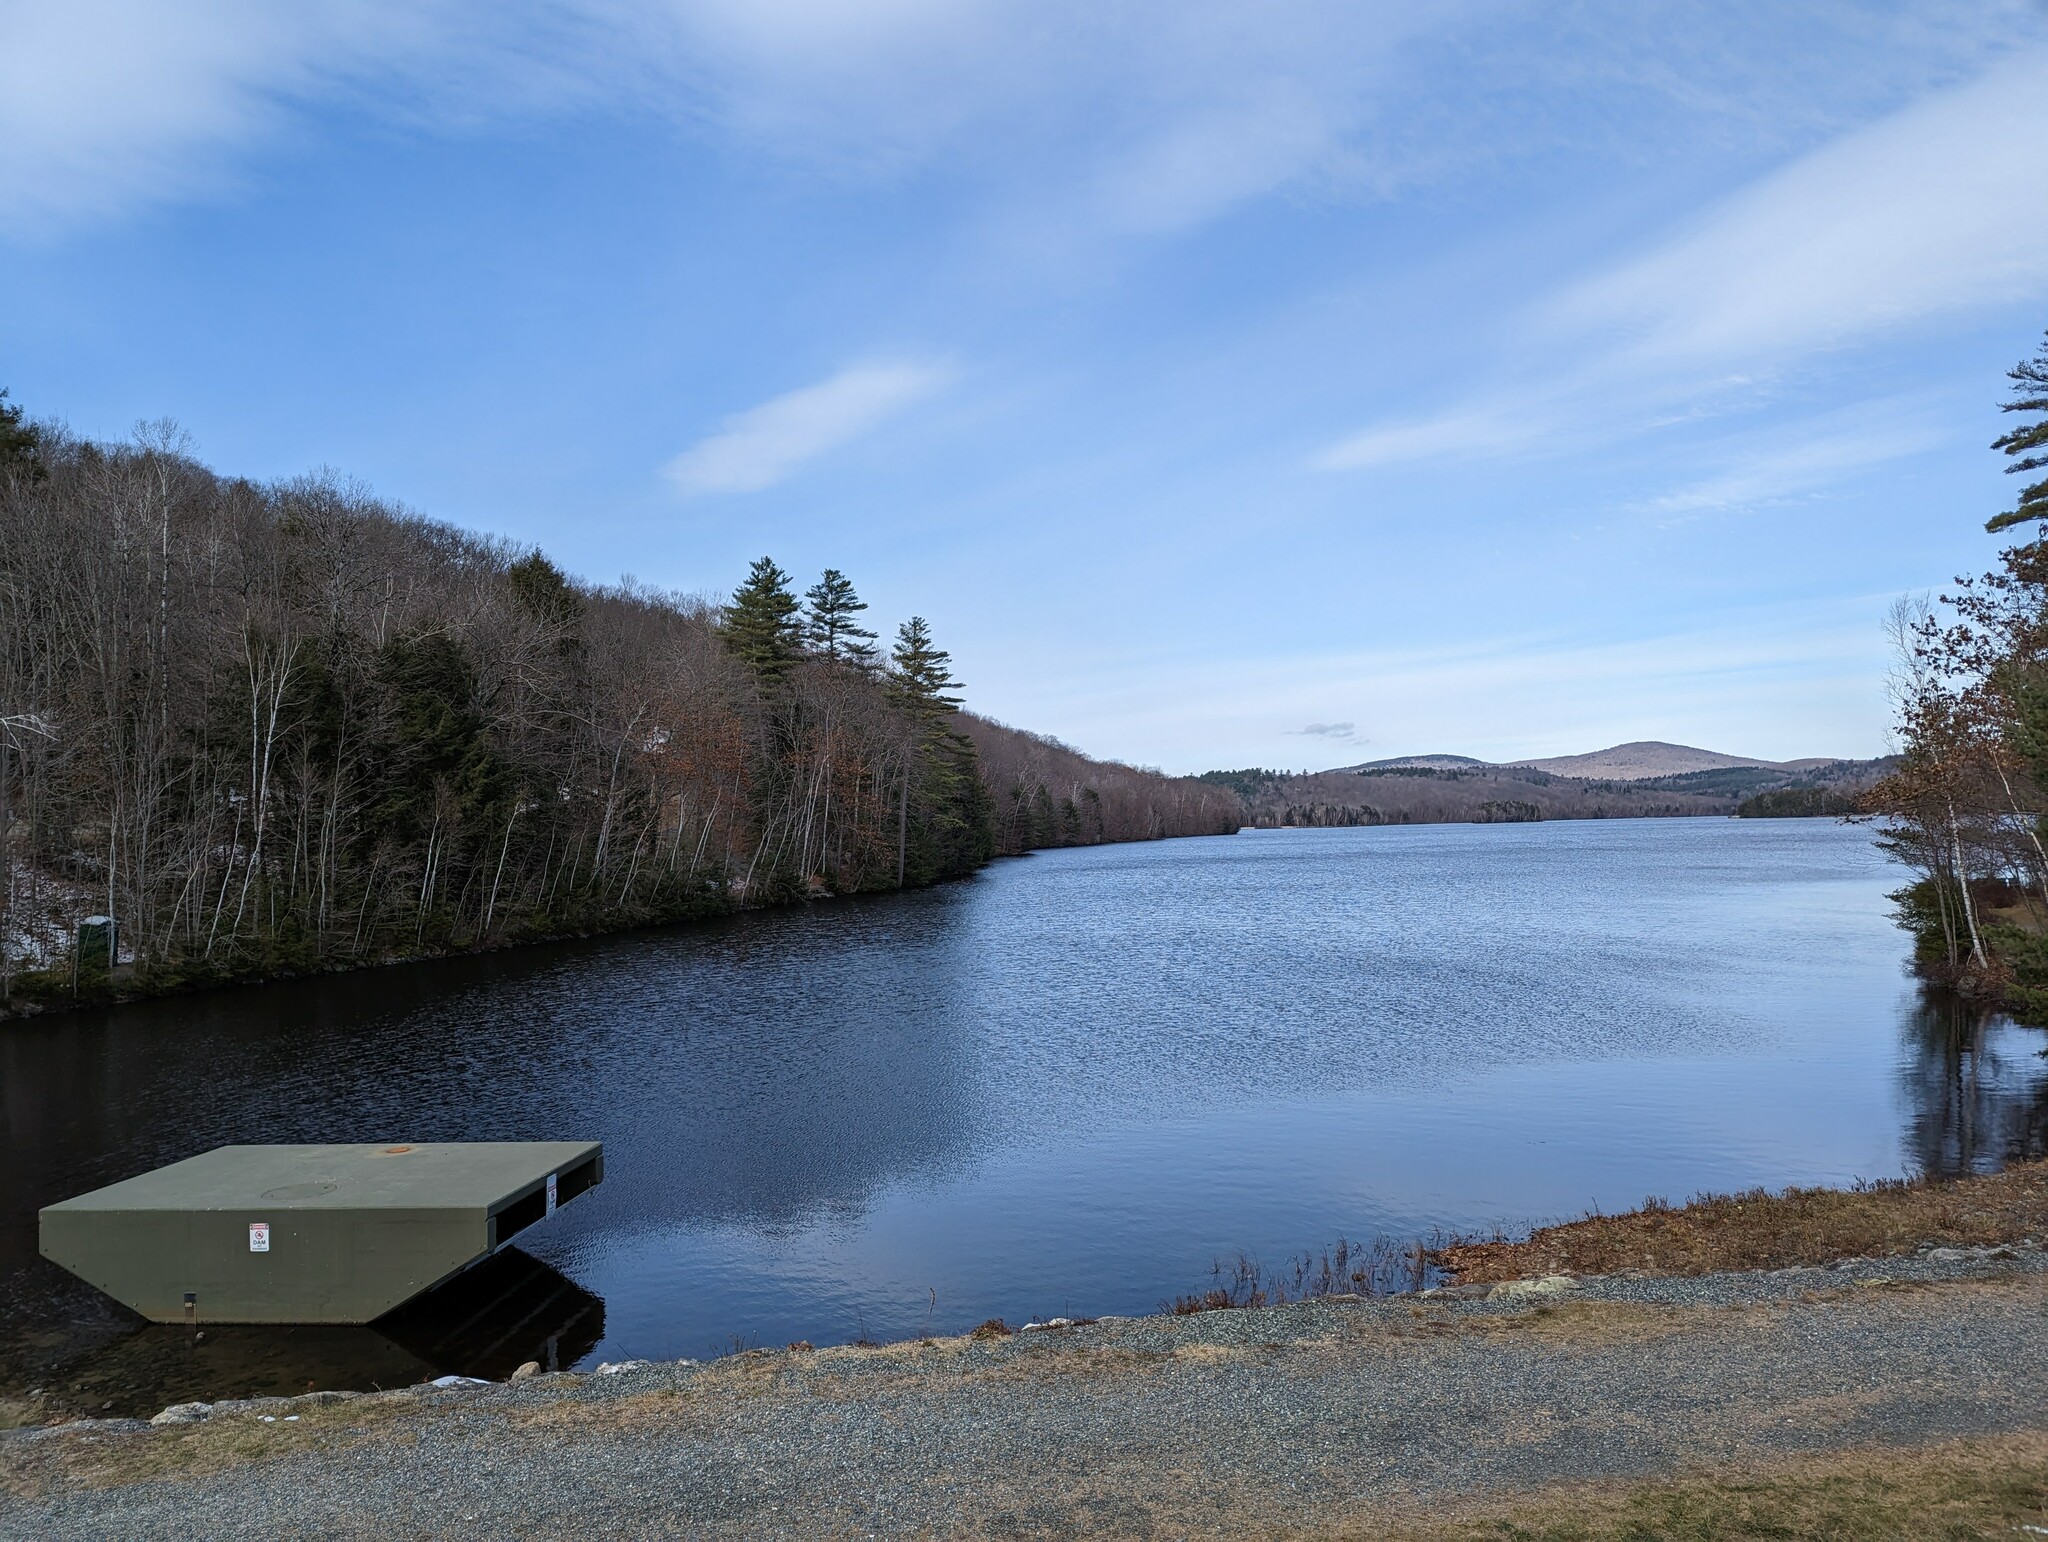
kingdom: Plantae
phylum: Tracheophyta
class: Pinopsida
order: Pinales
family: Pinaceae
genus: Pinus
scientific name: Pinus strobus
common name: Weymouth pine
